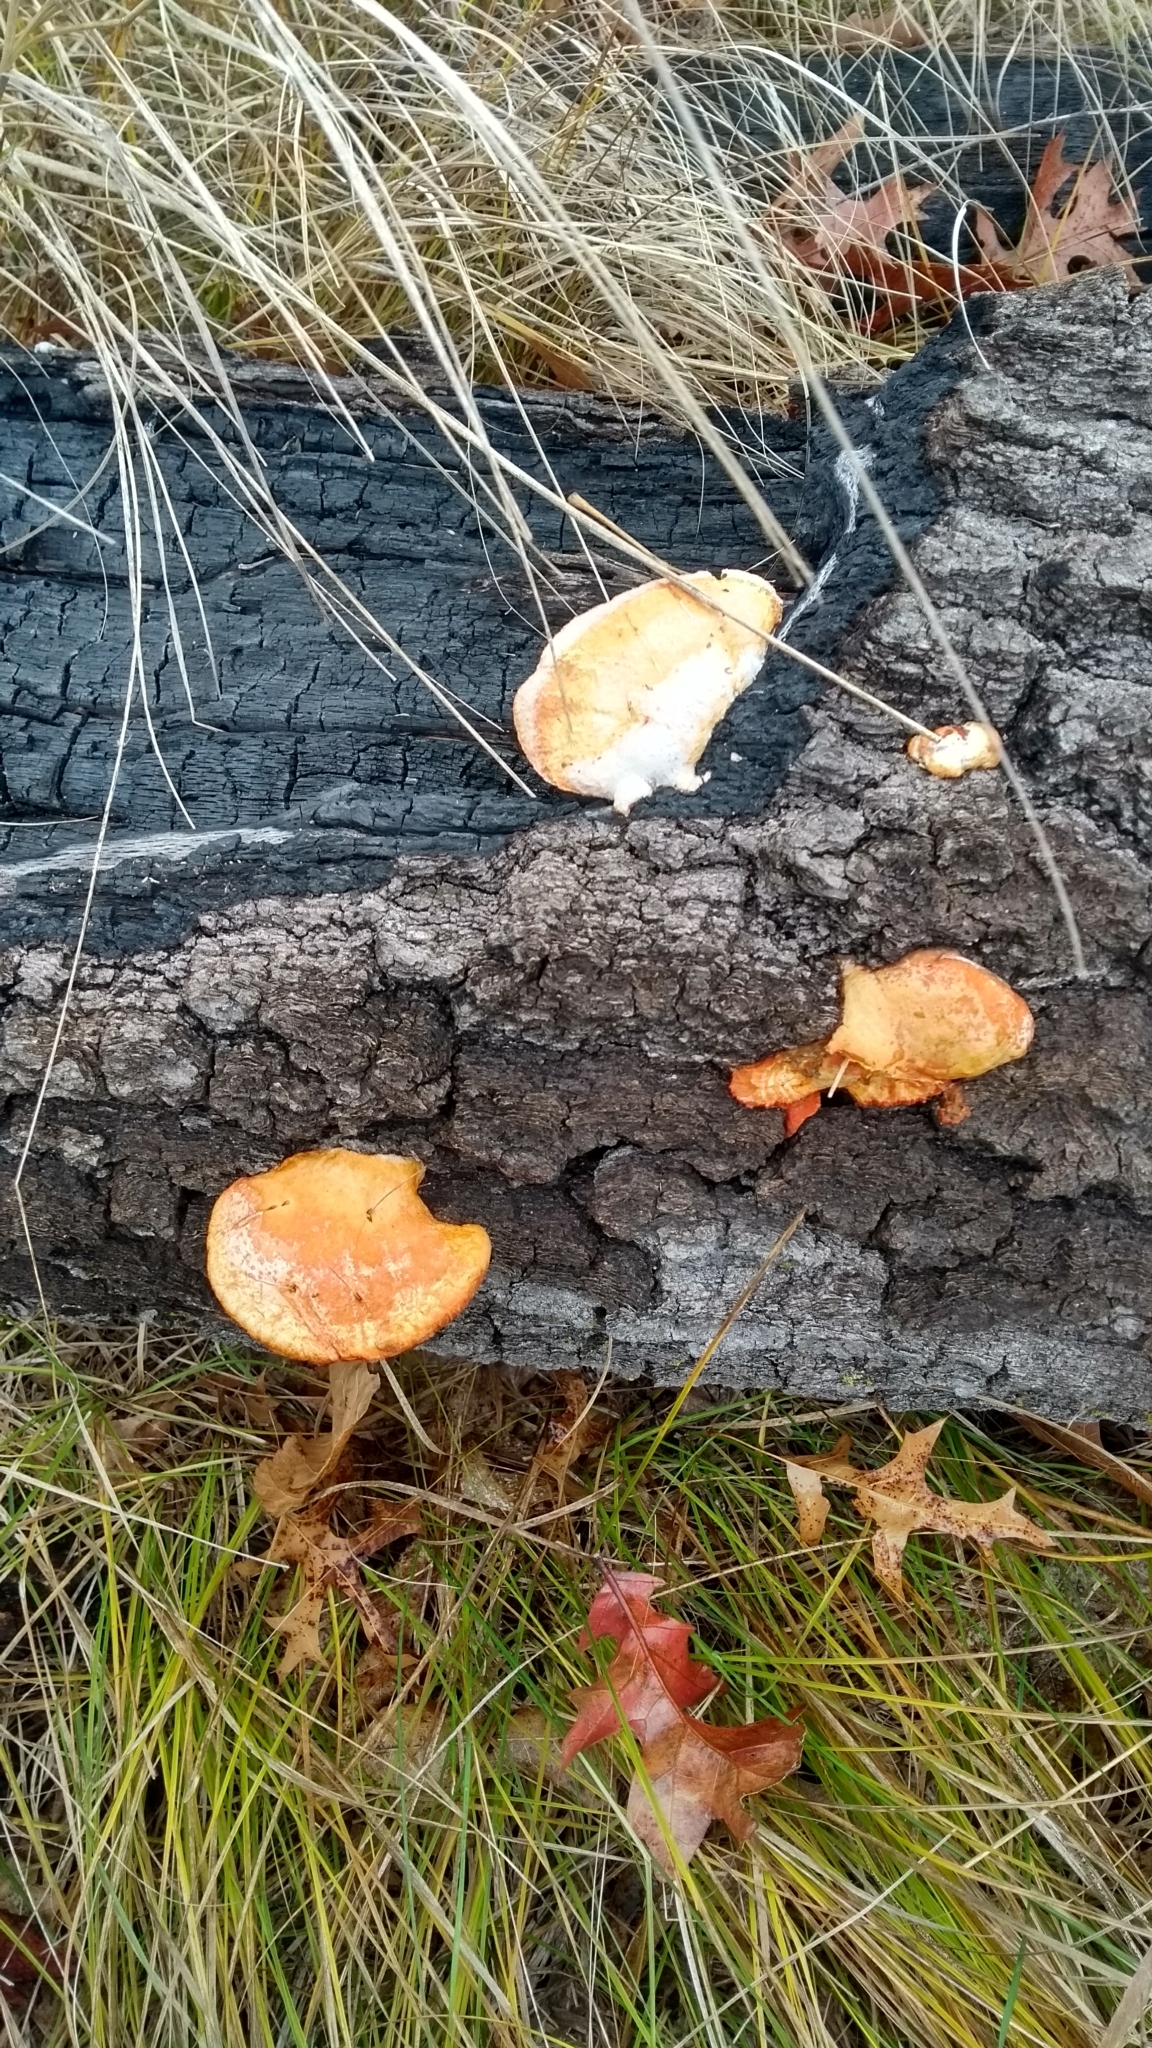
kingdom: Fungi
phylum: Basidiomycota
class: Agaricomycetes
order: Polyporales
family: Polyporaceae
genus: Trametes
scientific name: Trametes cinnabarina
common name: Northern cinnabar polypore
